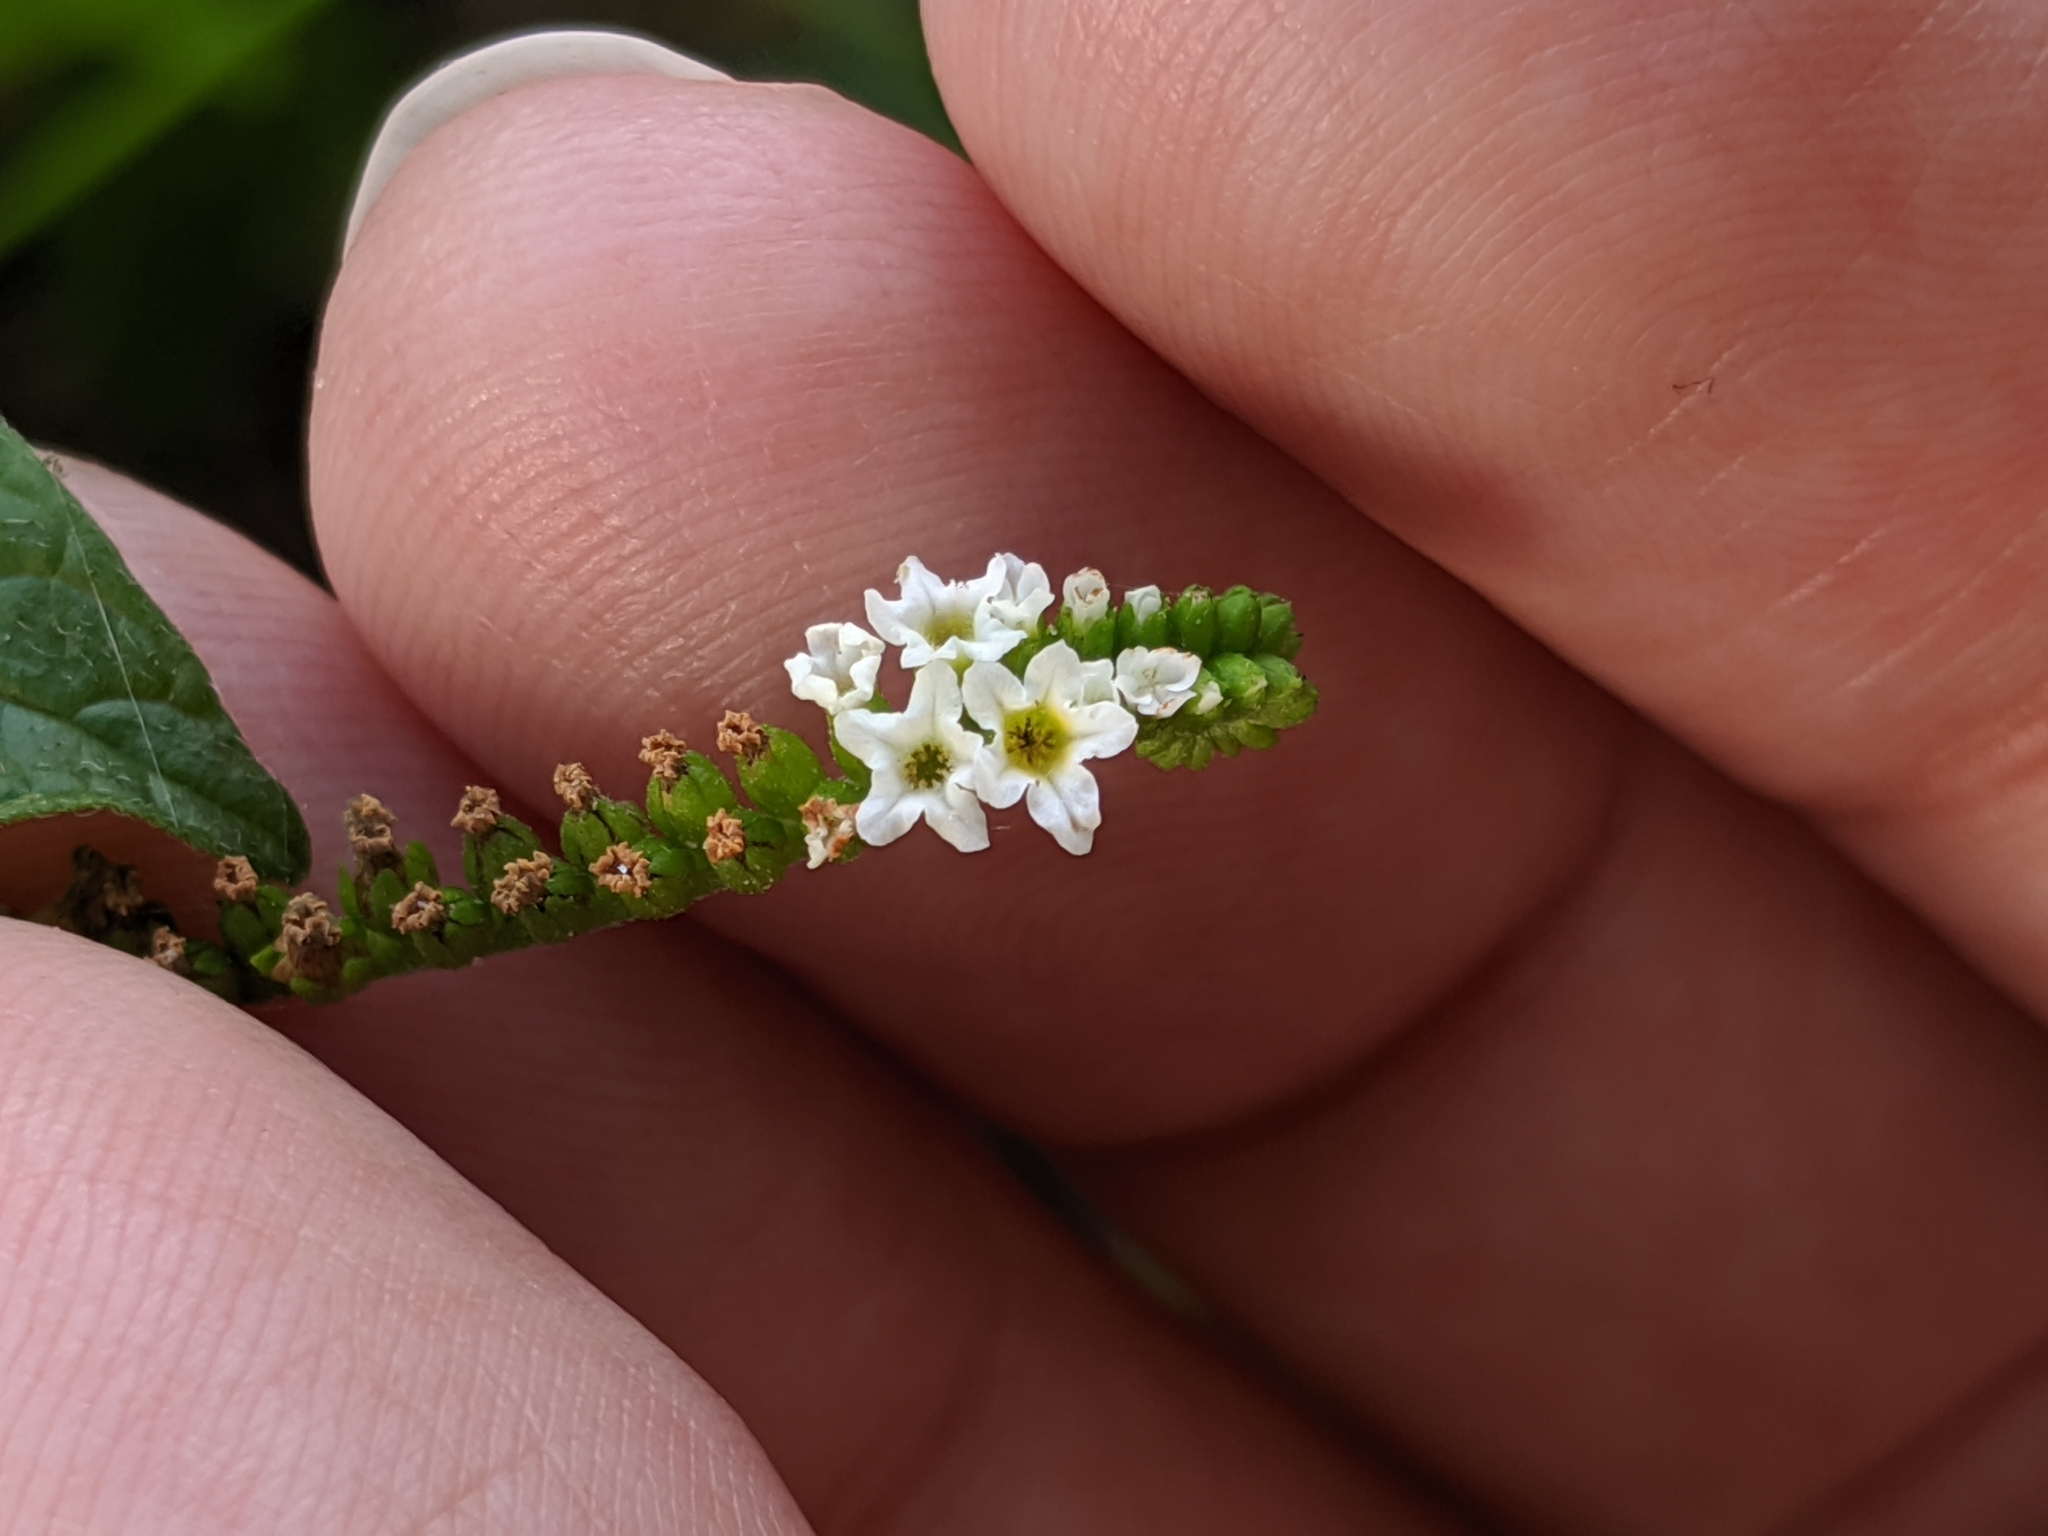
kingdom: Plantae
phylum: Tracheophyta
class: Magnoliopsida
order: Boraginales
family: Heliotropiaceae
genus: Heliotropium
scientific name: Heliotropium angiospermum
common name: Eye bright
